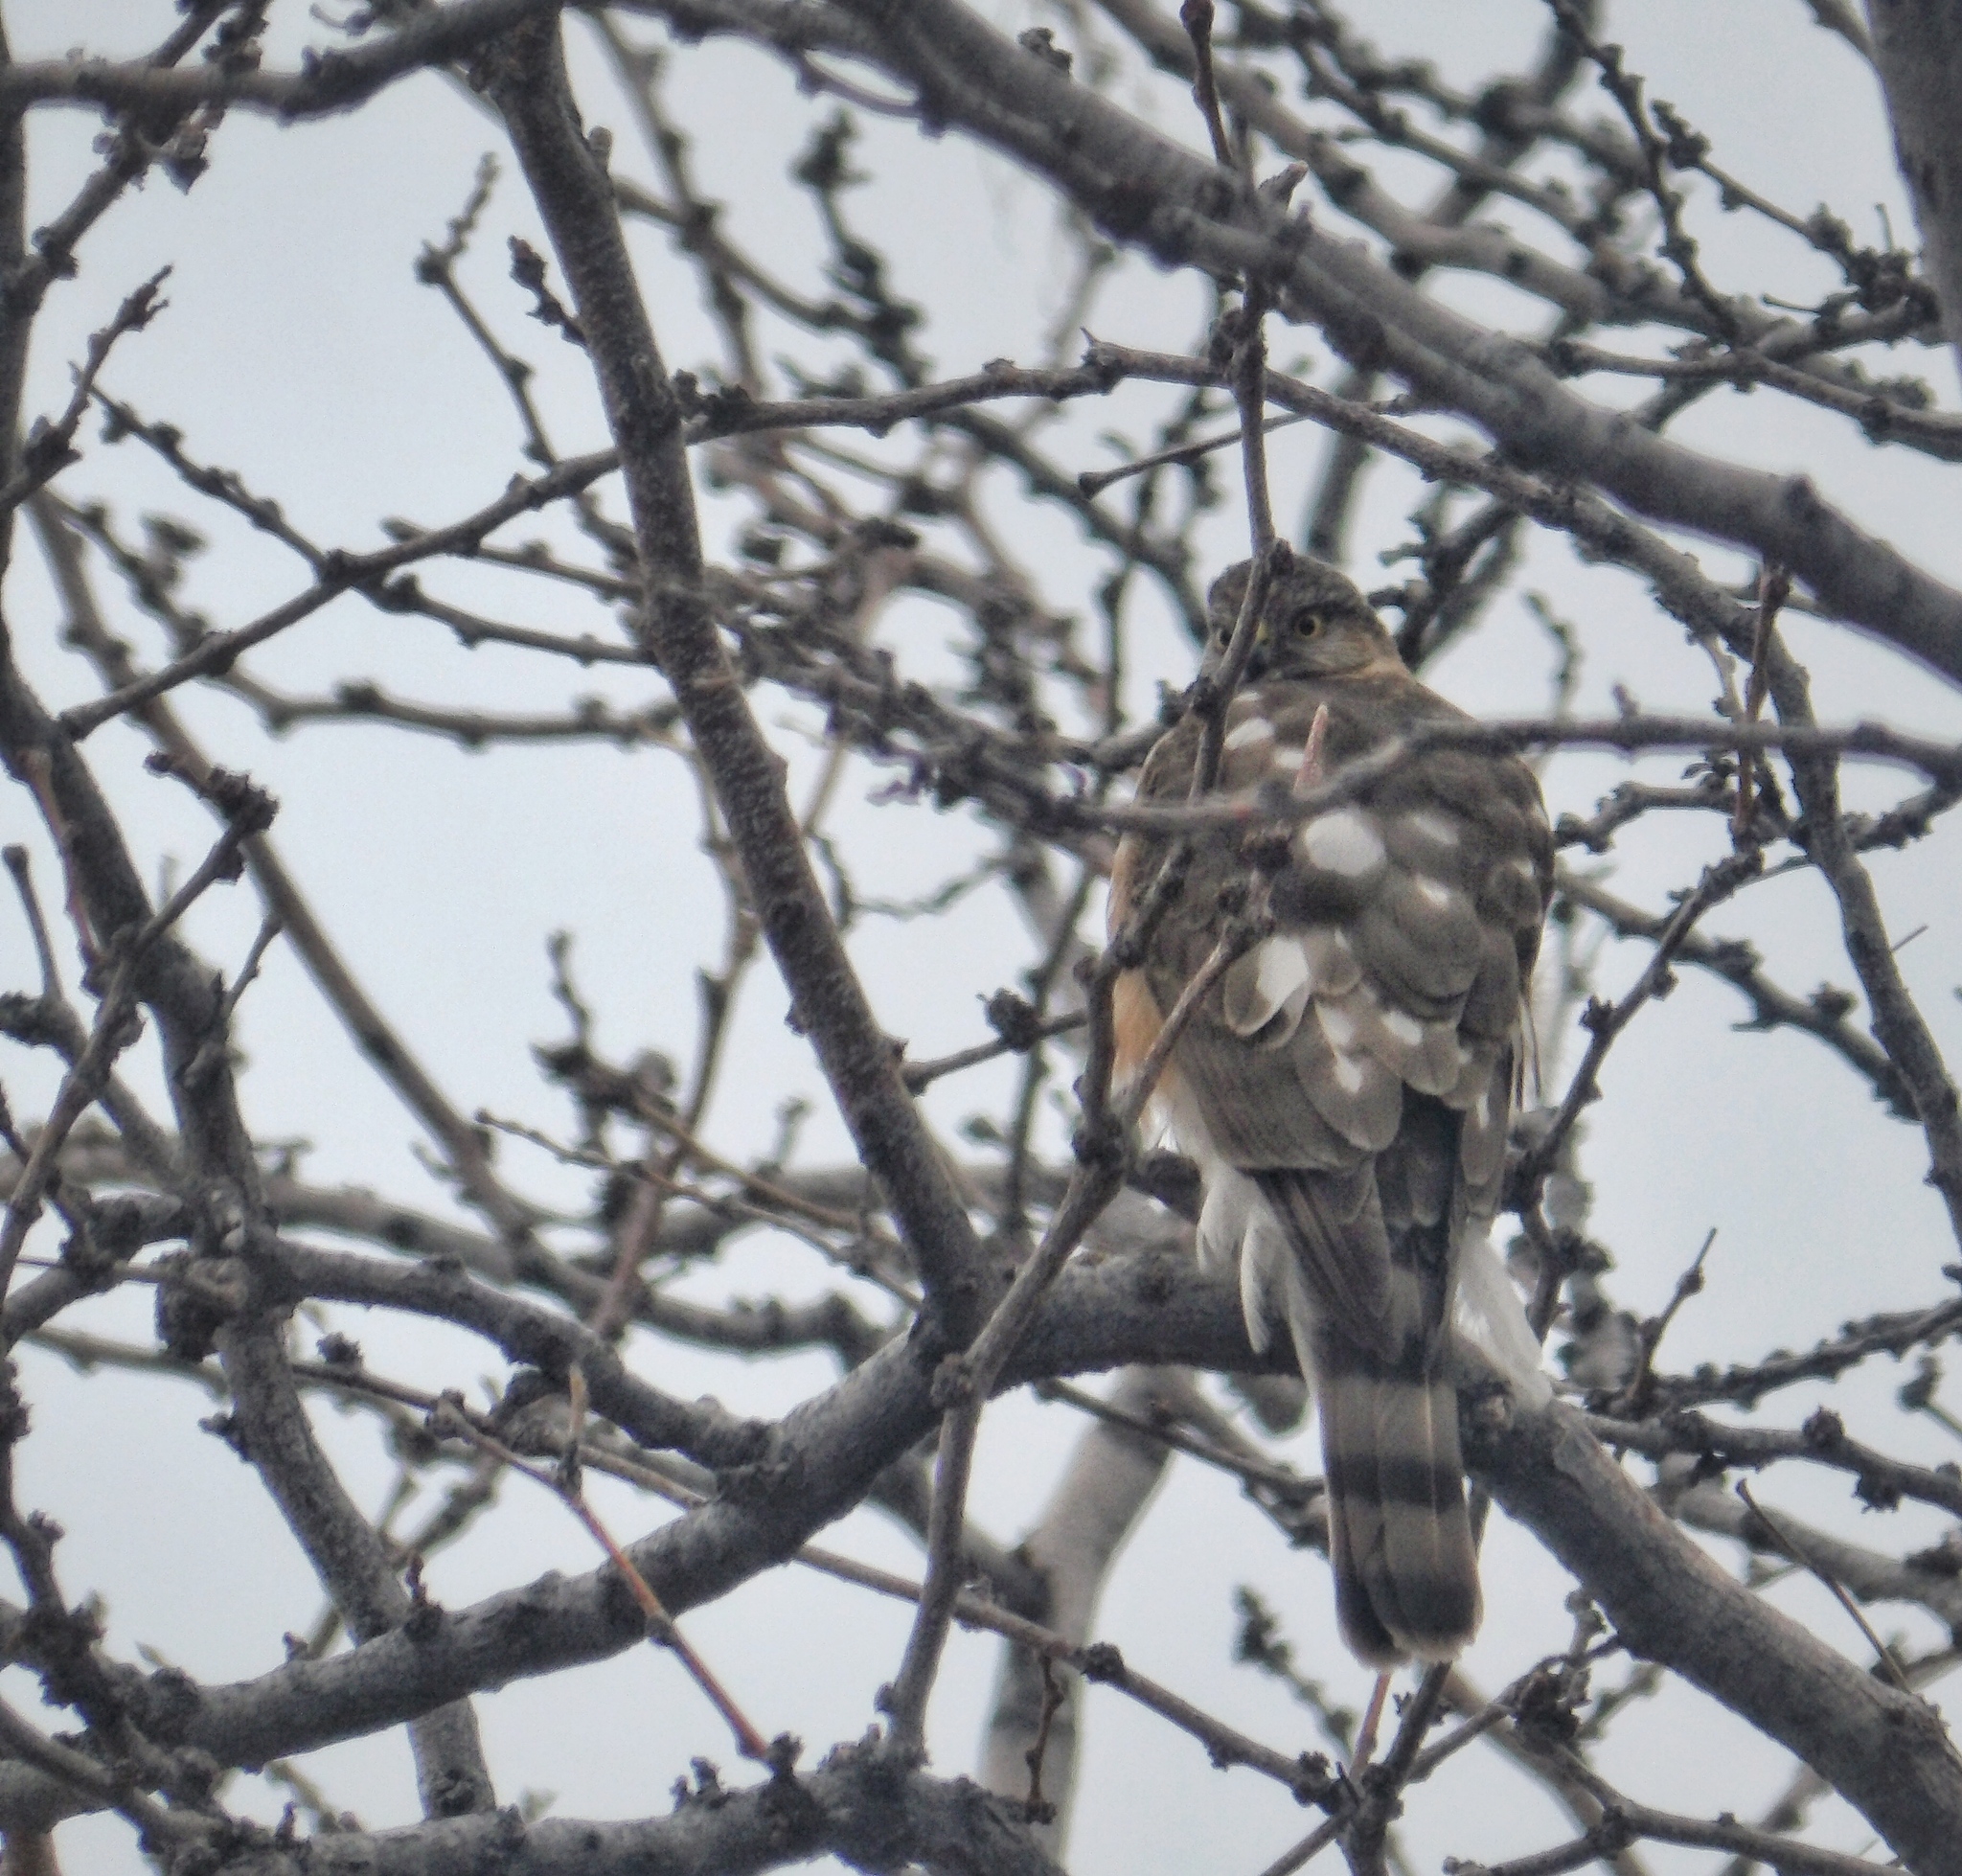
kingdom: Animalia
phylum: Chordata
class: Aves
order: Accipitriformes
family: Accipitridae
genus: Accipiter
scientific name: Accipiter striatus
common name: Sharp-shinned hawk
